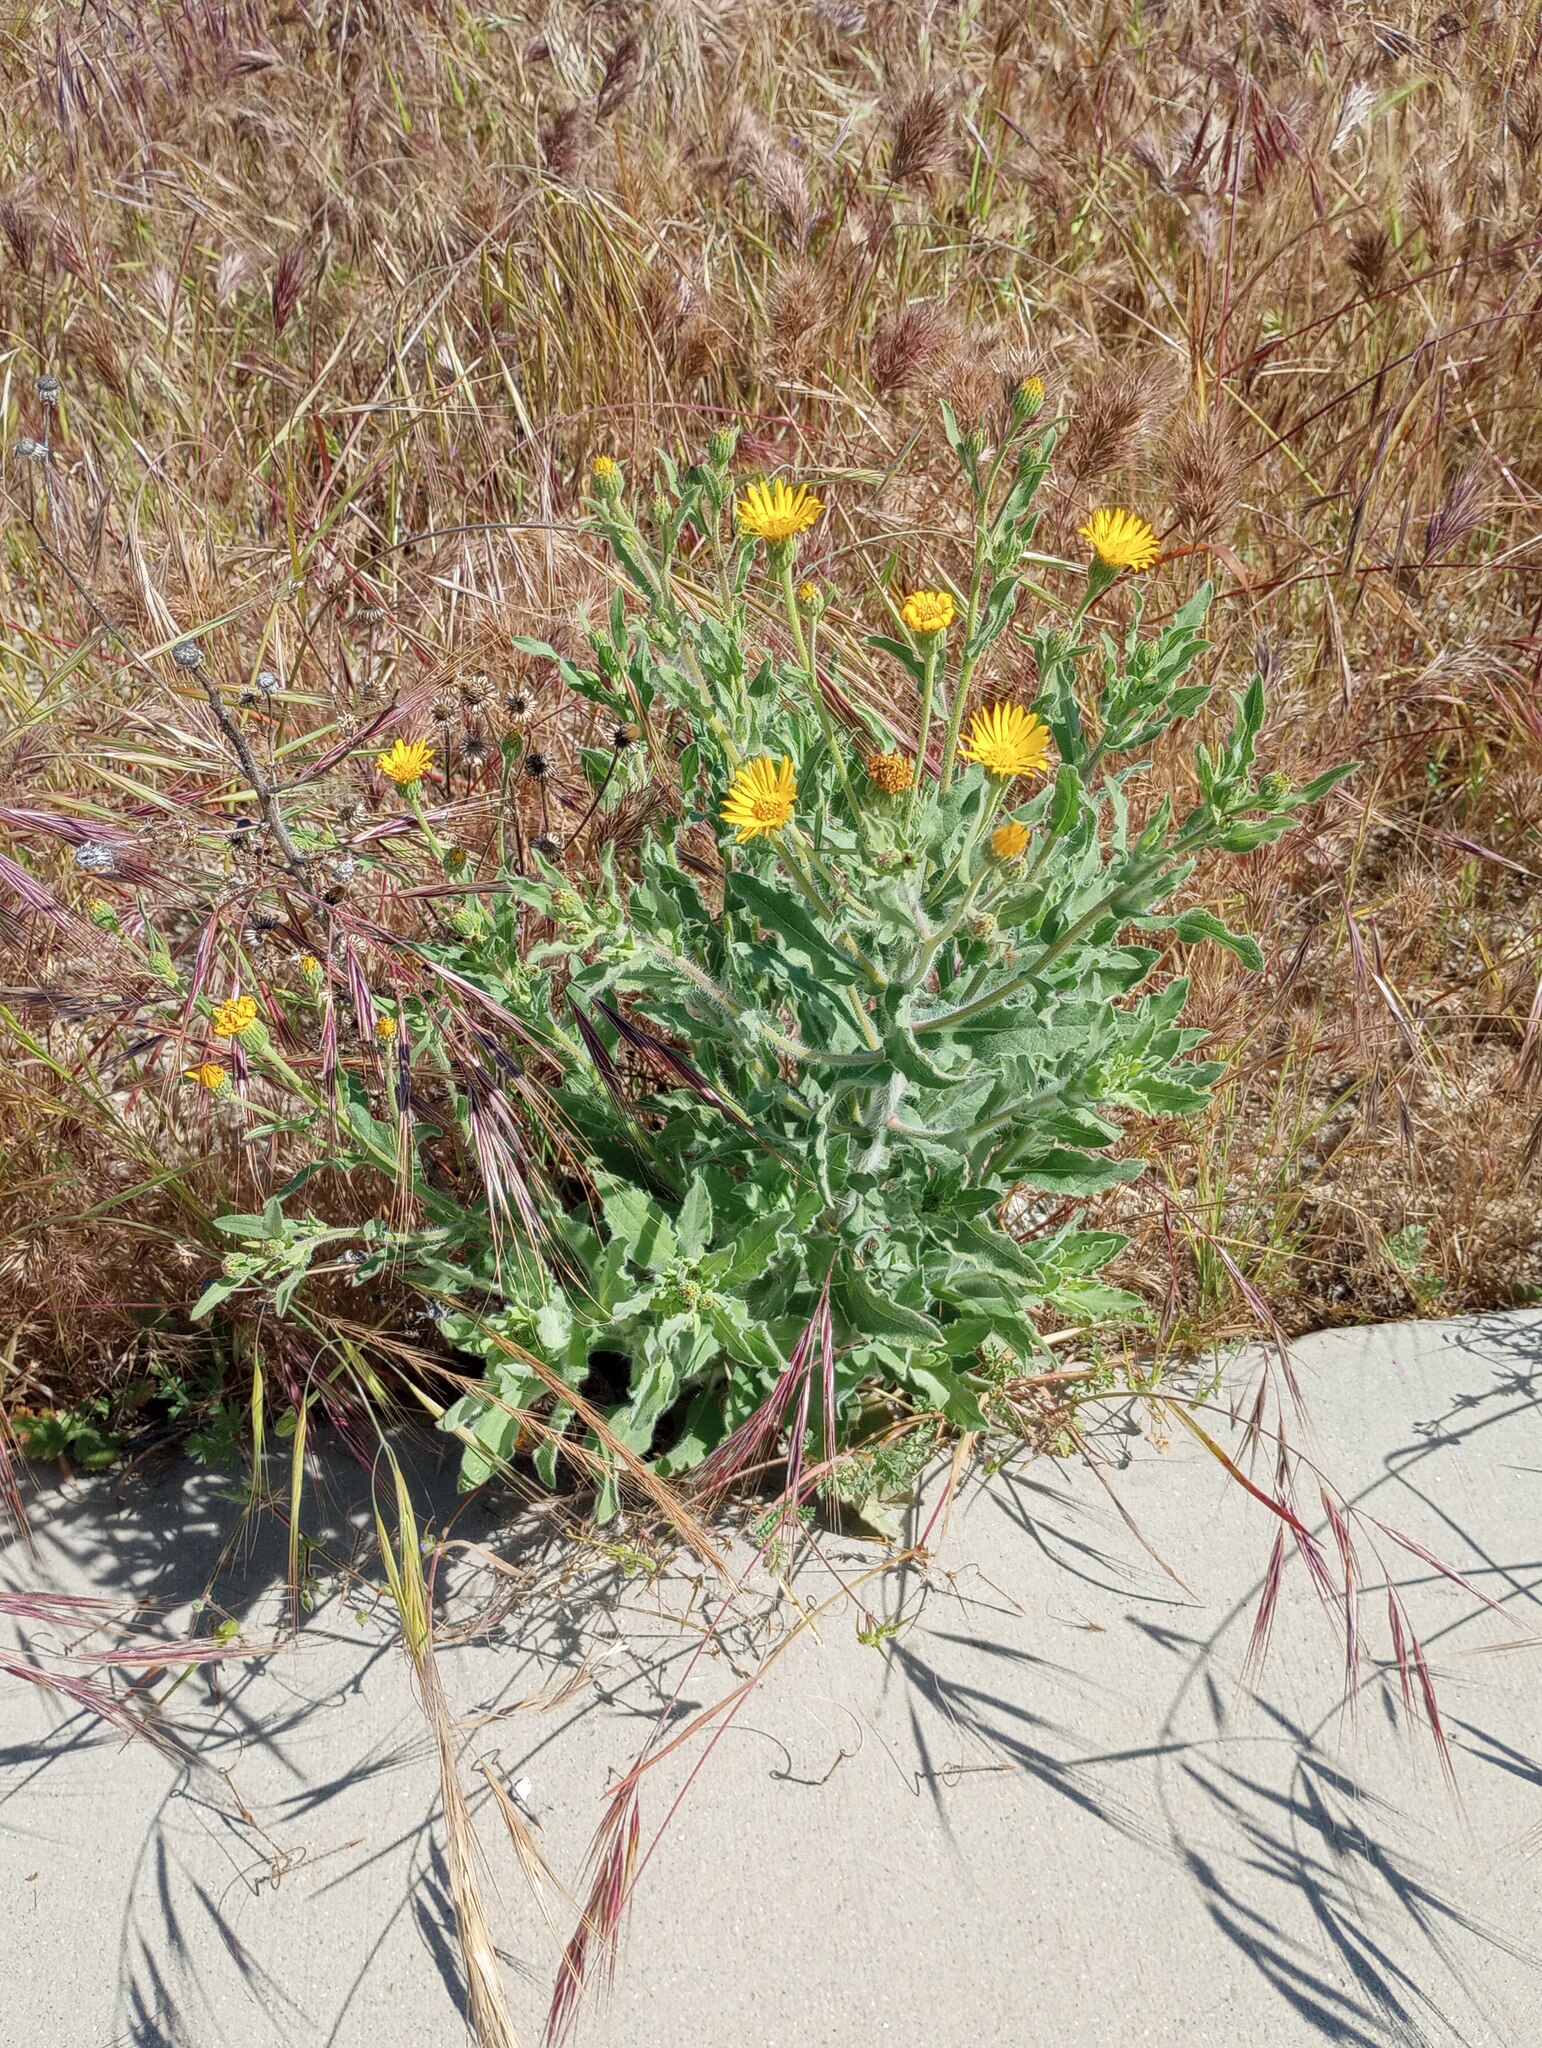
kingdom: Plantae
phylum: Tracheophyta
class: Magnoliopsida
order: Asterales
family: Asteraceae
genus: Heterotheca
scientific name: Heterotheca grandiflora
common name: Telegraphweed
